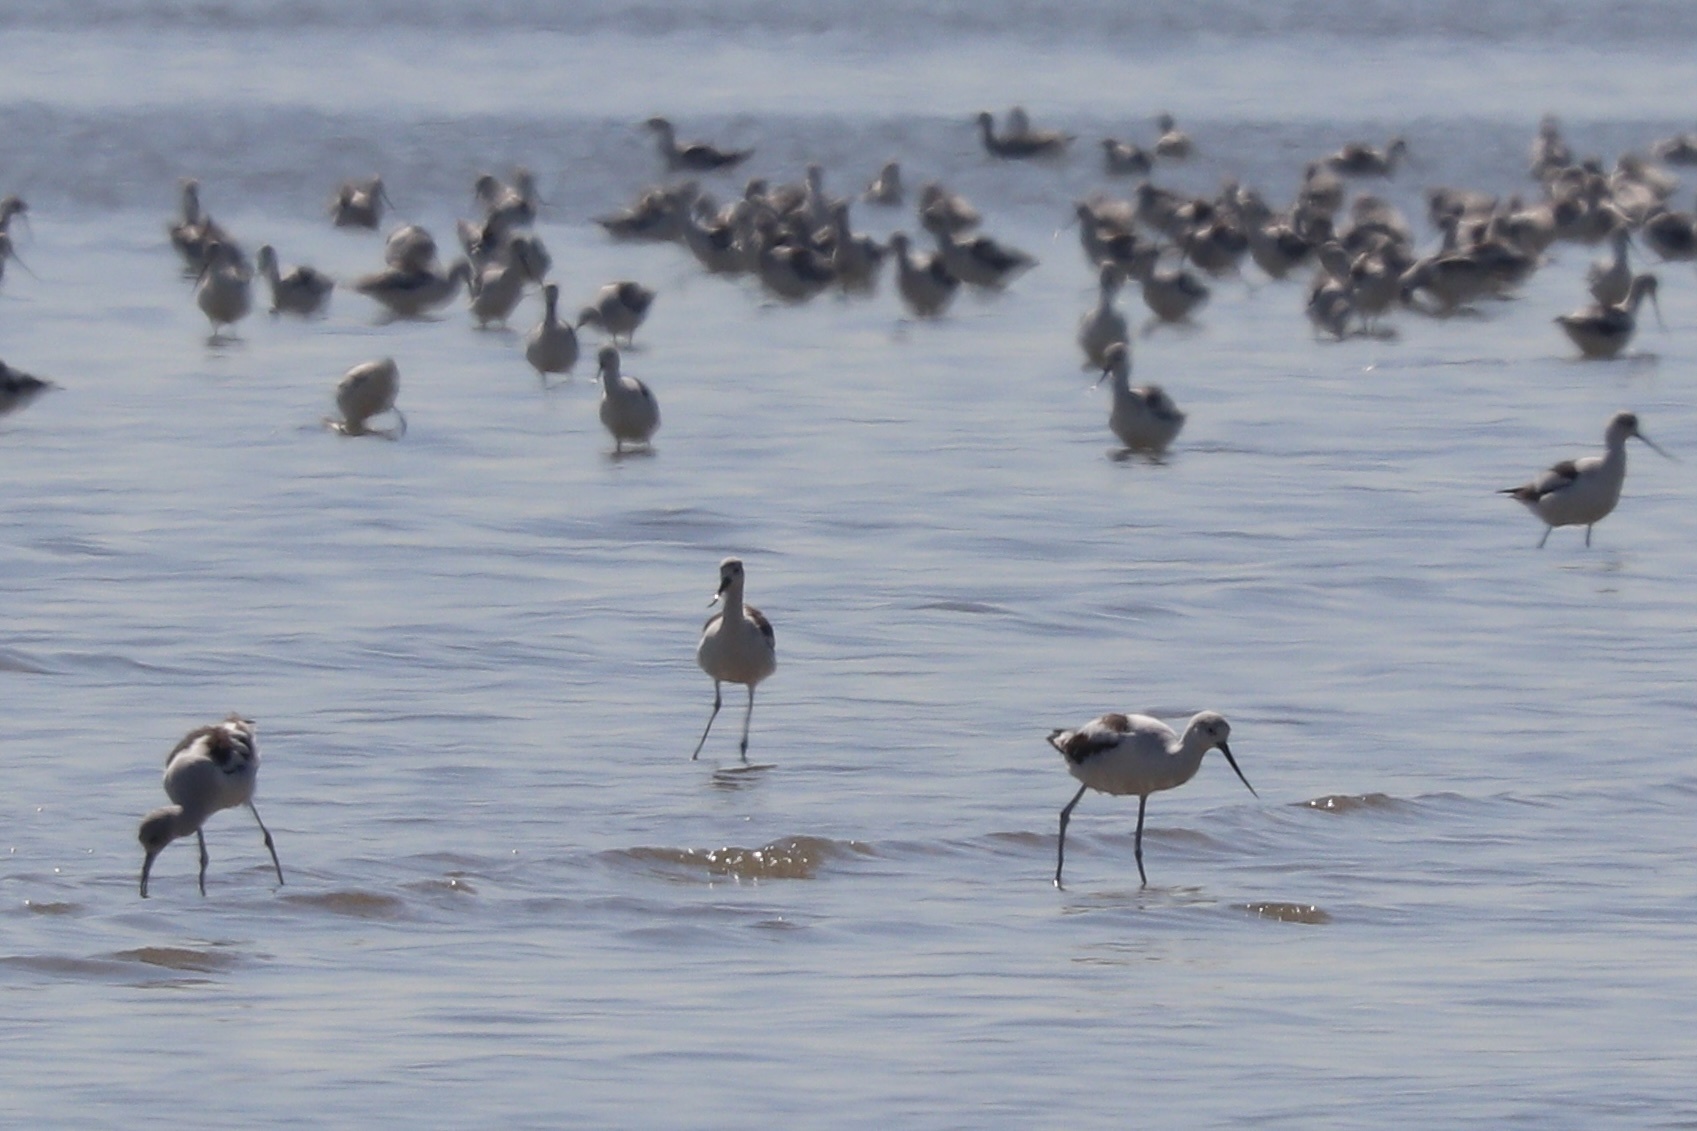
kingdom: Animalia
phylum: Chordata
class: Aves
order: Charadriiformes
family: Recurvirostridae
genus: Recurvirostra
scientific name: Recurvirostra americana
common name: American avocet
